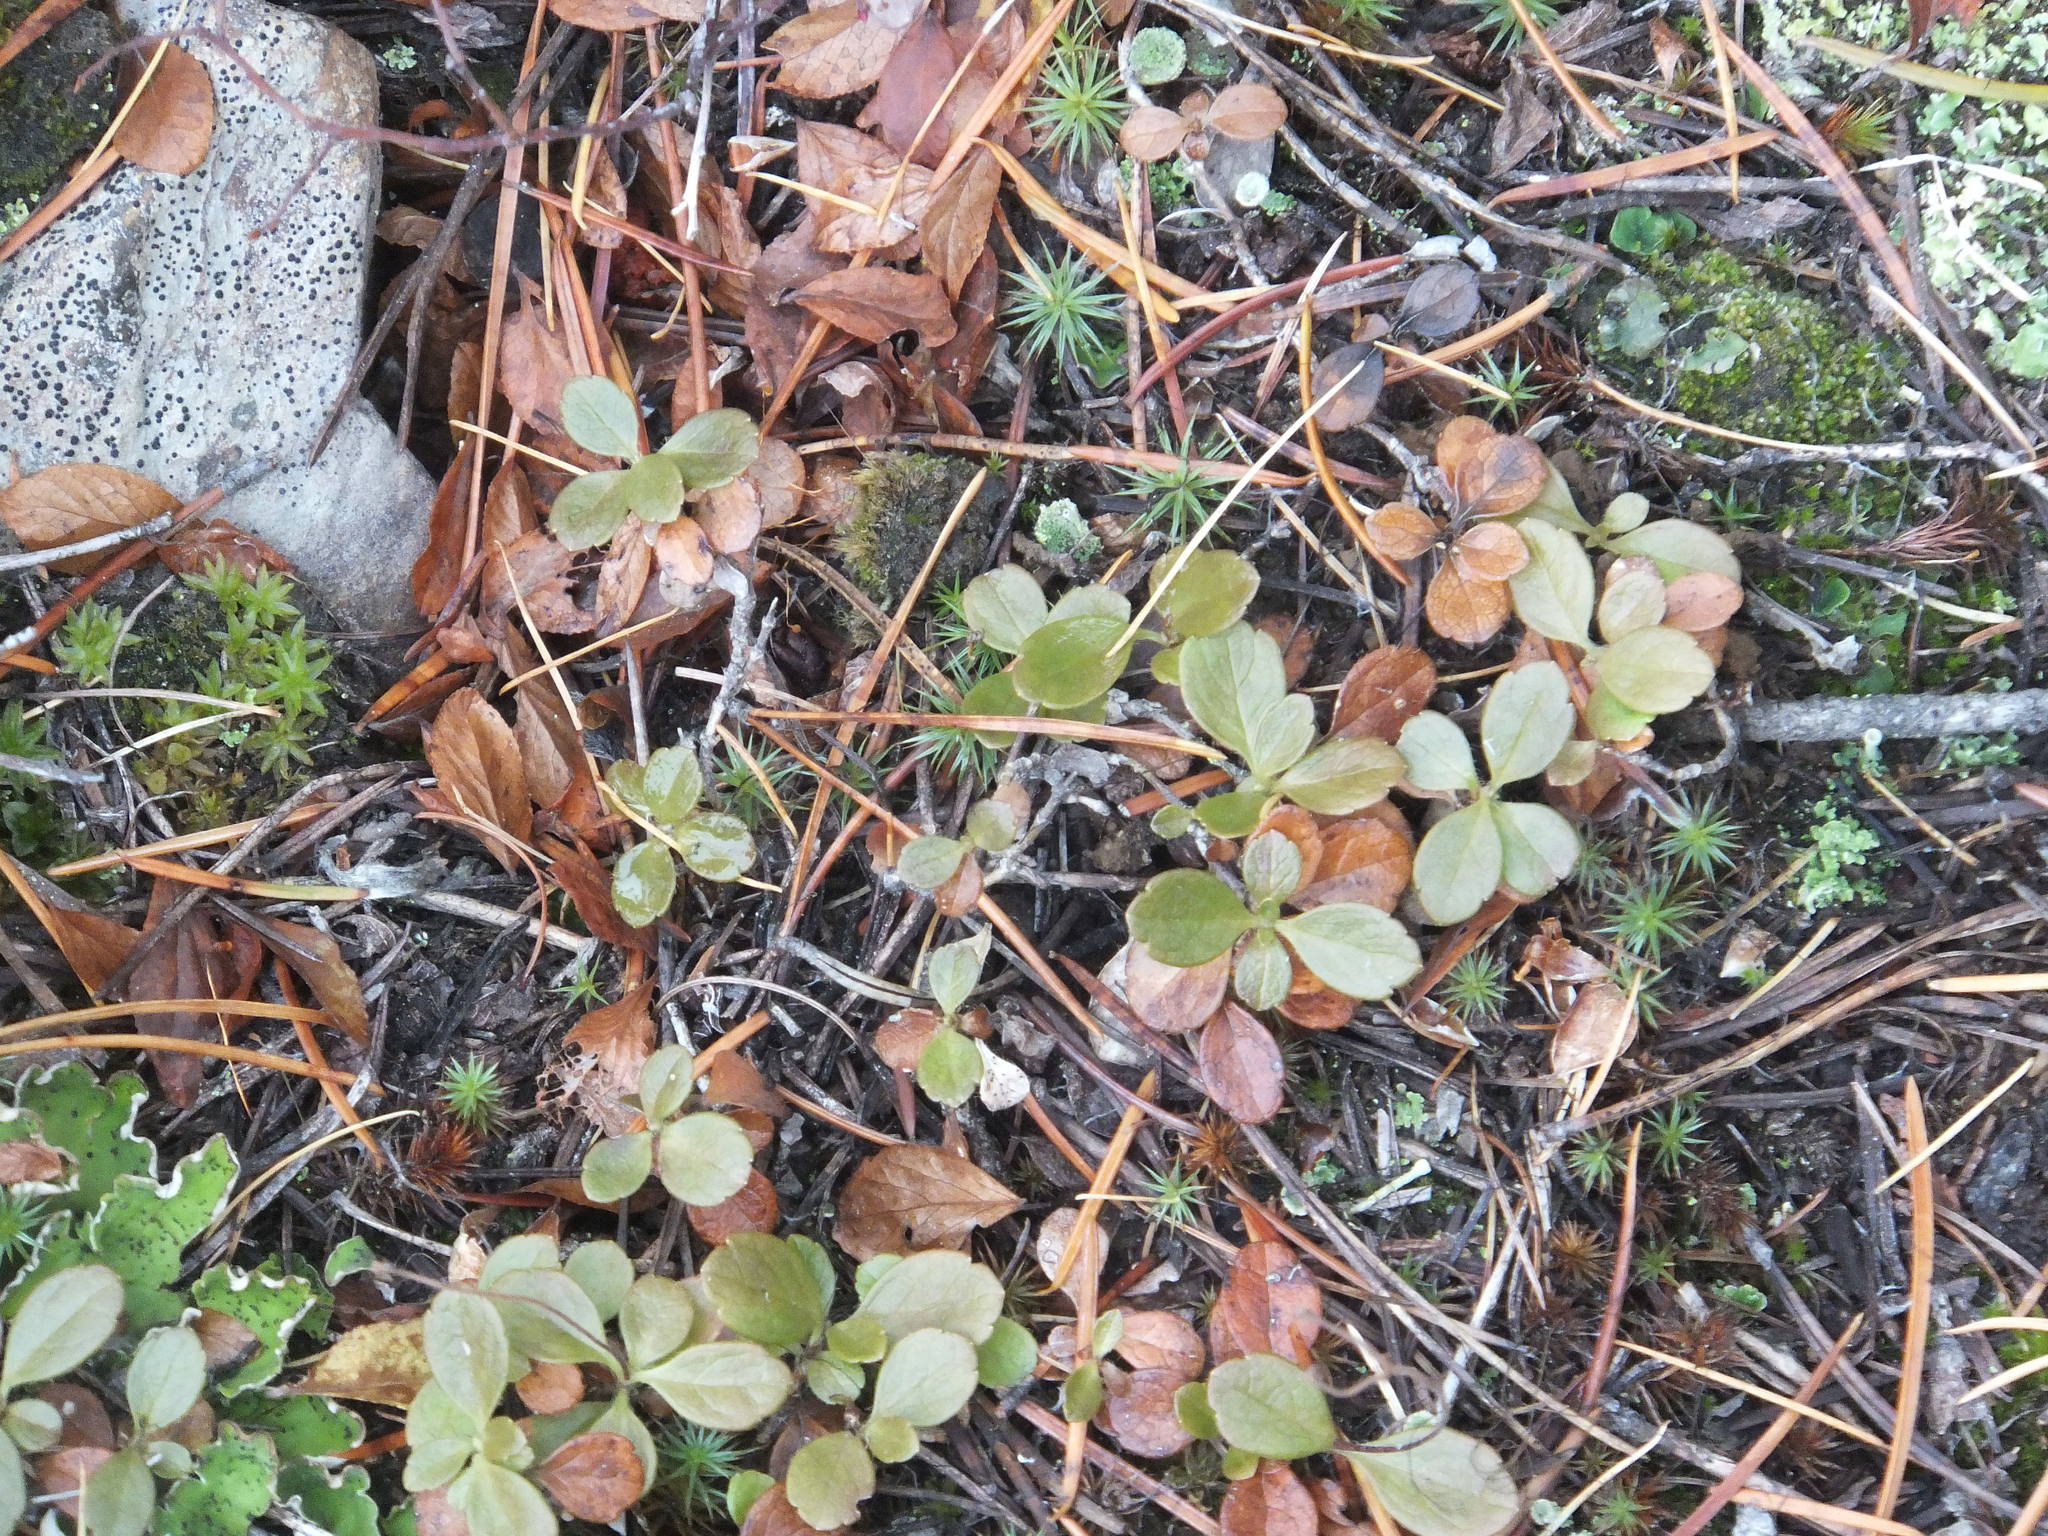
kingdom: Plantae
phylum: Tracheophyta
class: Magnoliopsida
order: Dipsacales
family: Caprifoliaceae
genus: Linnaea
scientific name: Linnaea borealis
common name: Twinflower
